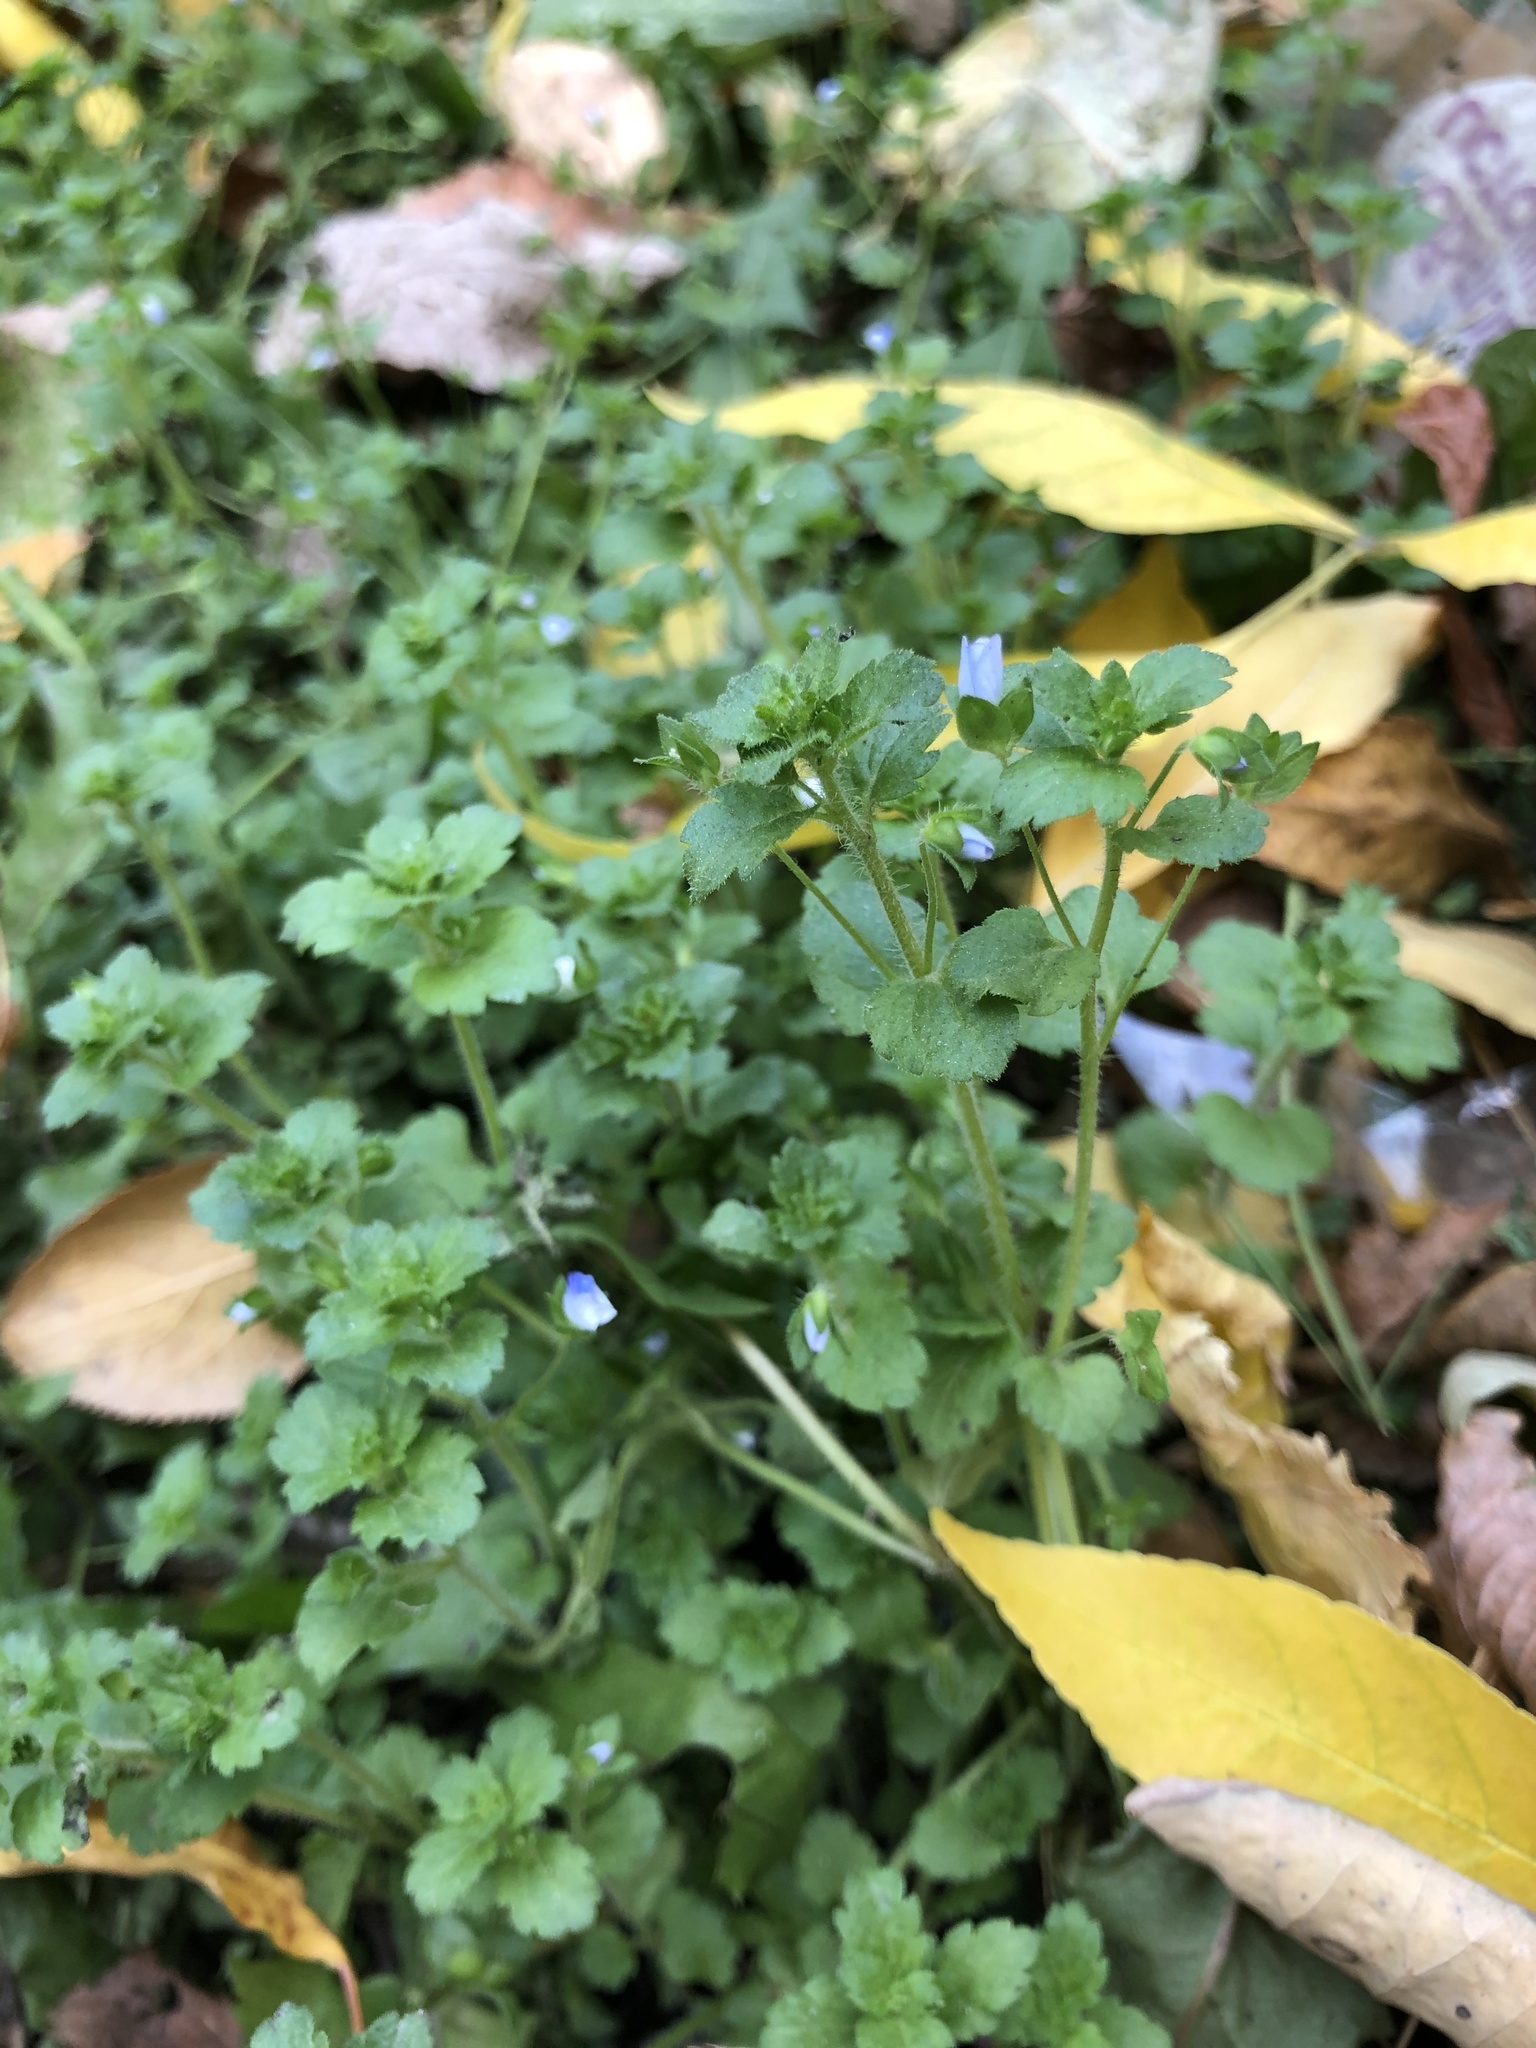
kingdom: Plantae
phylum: Tracheophyta
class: Magnoliopsida
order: Lamiales
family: Plantaginaceae
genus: Veronica
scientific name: Veronica persica
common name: Common field-speedwell
